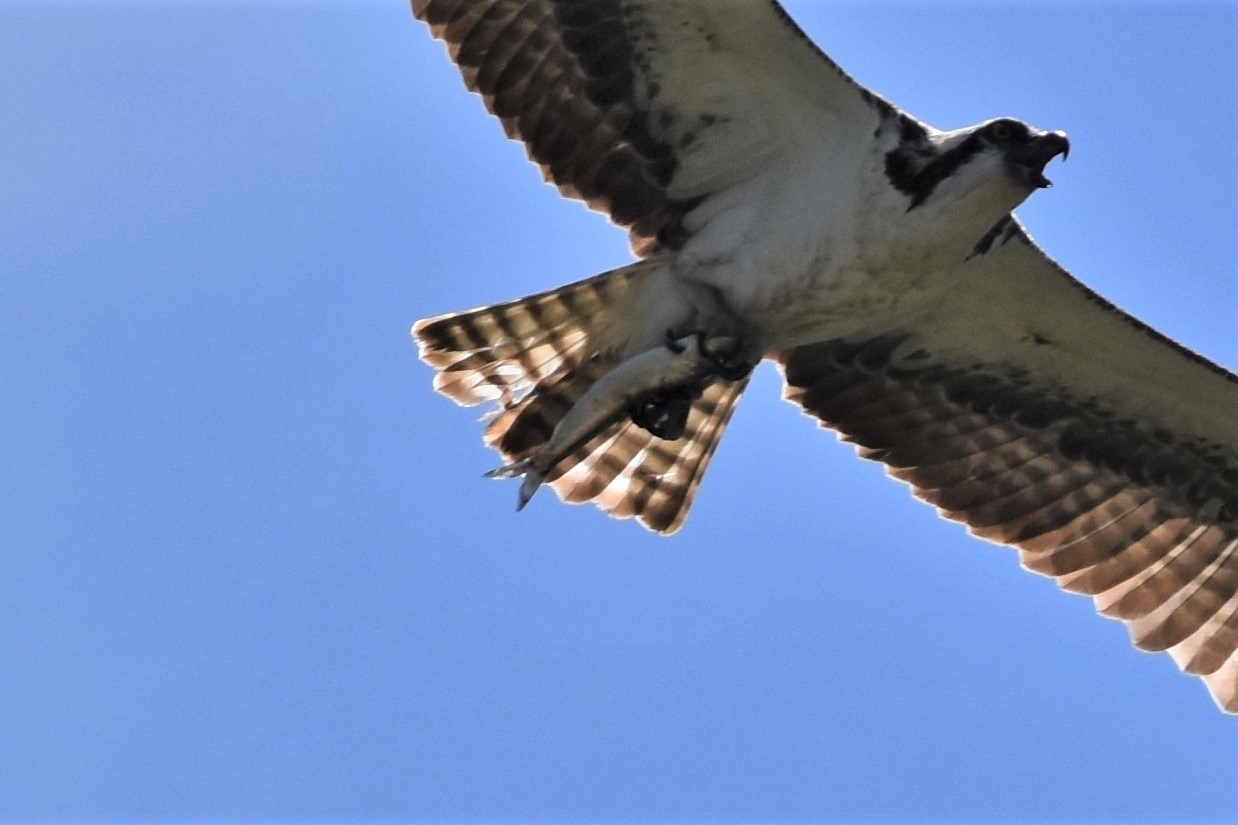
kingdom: Animalia
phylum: Chordata
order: Clupeiformes
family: Clupeidae
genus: Clupea
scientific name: Clupea pallasii
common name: Pacific herring
